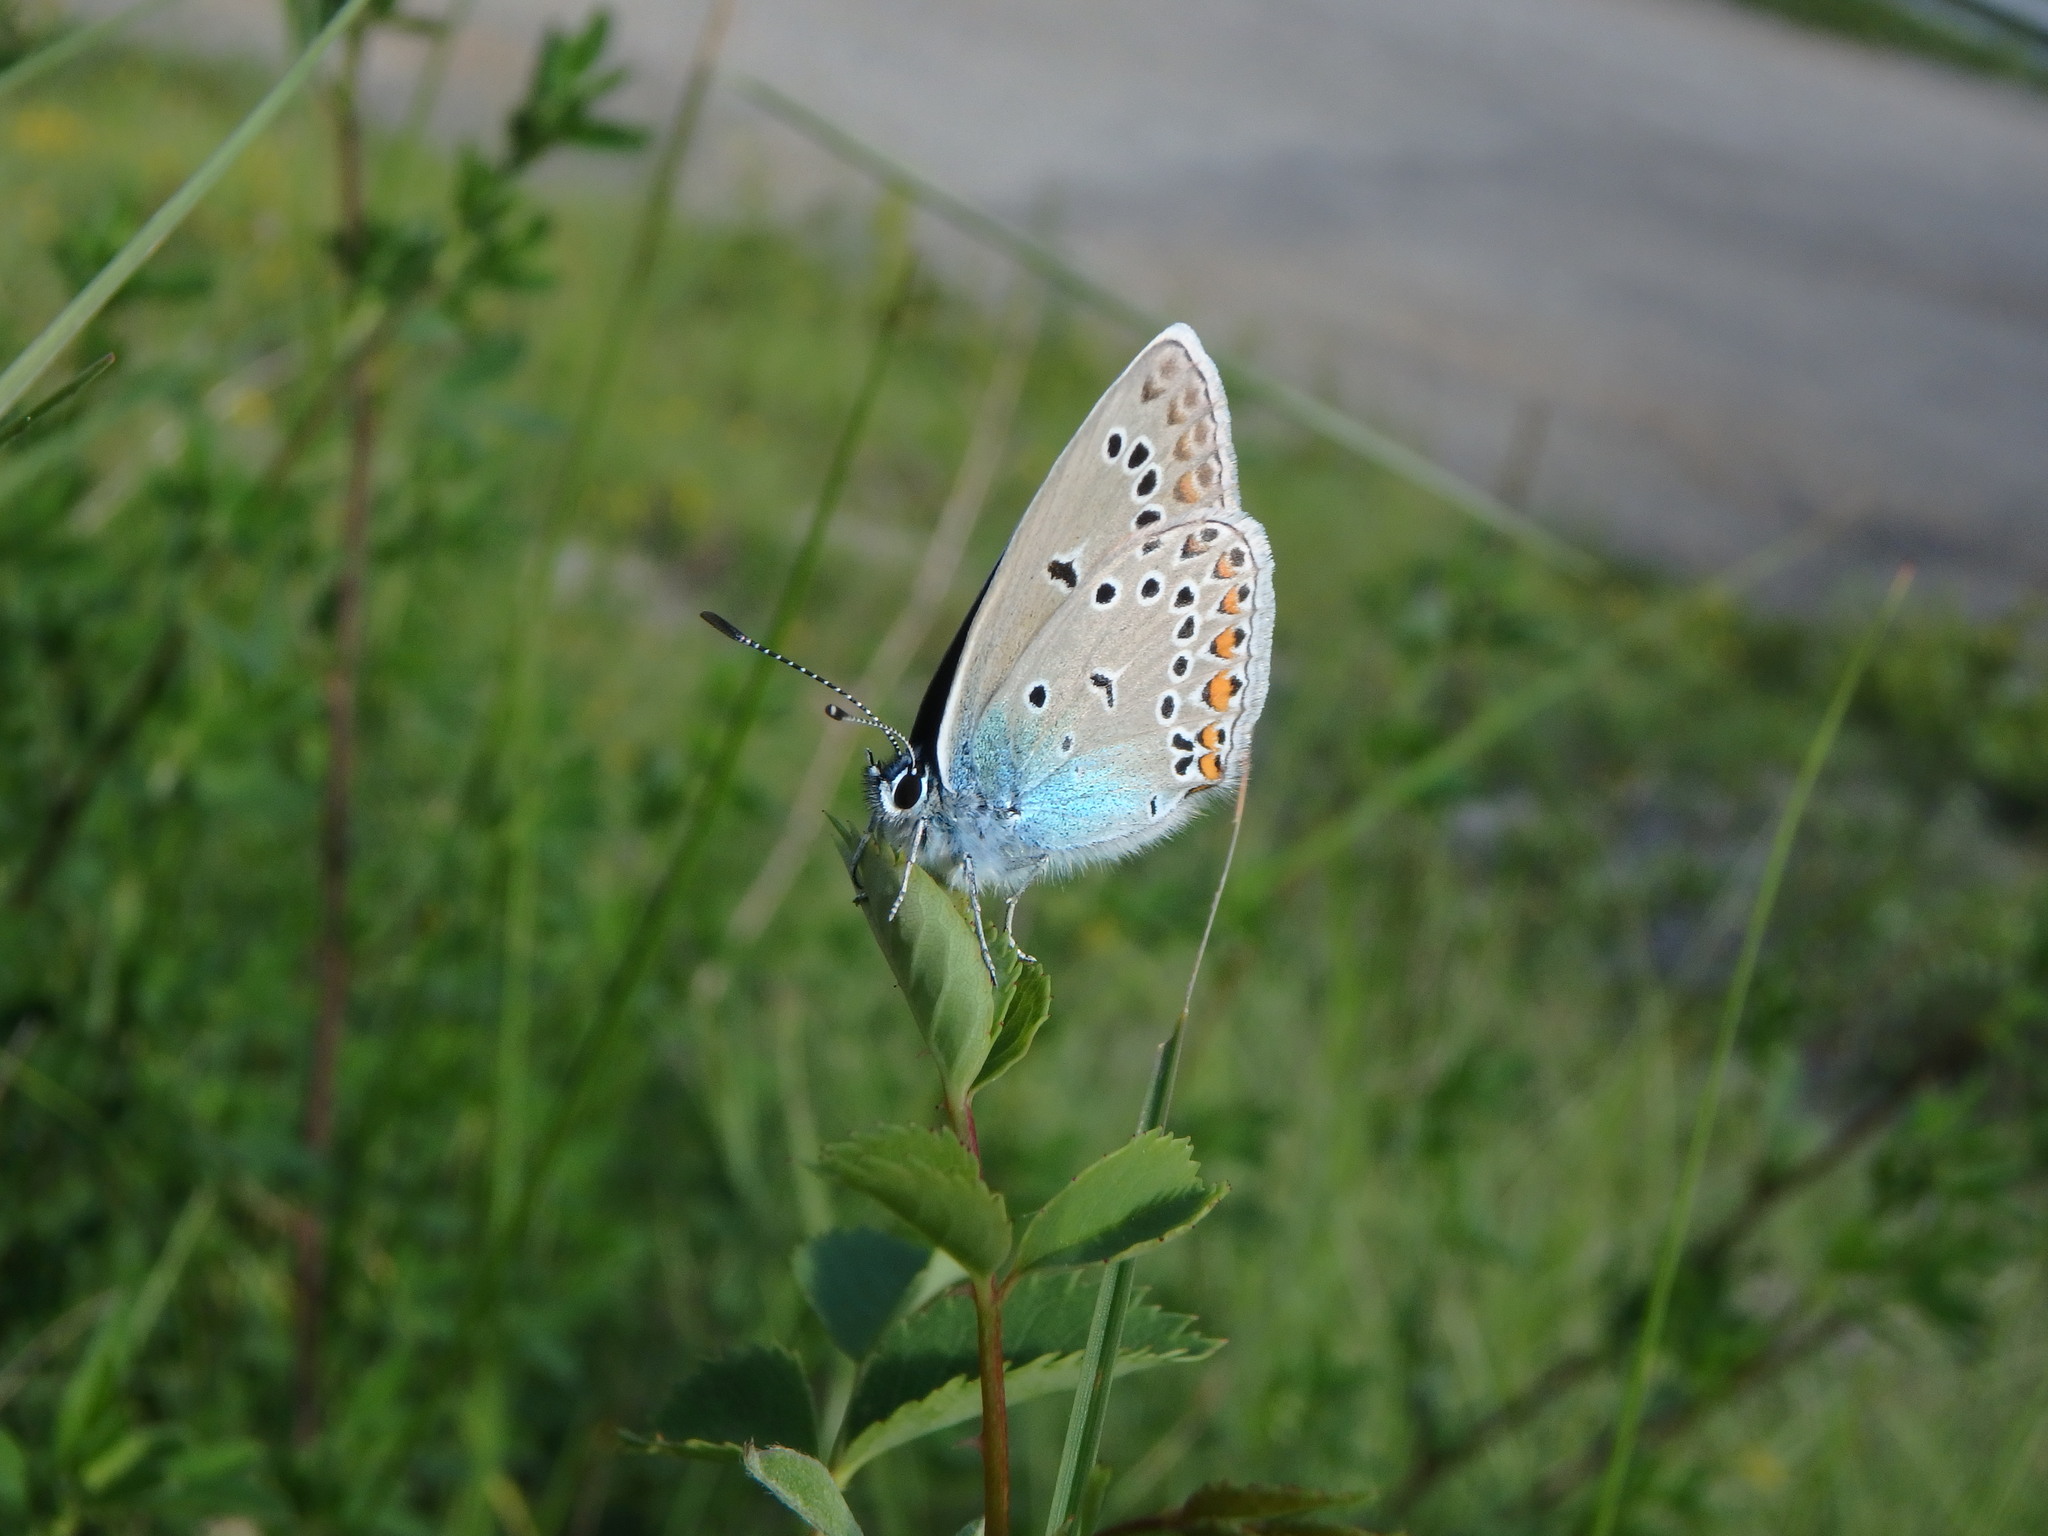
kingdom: Animalia
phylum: Arthropoda
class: Insecta
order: Lepidoptera
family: Lycaenidae
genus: Plebejus
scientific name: Plebejus amanda
